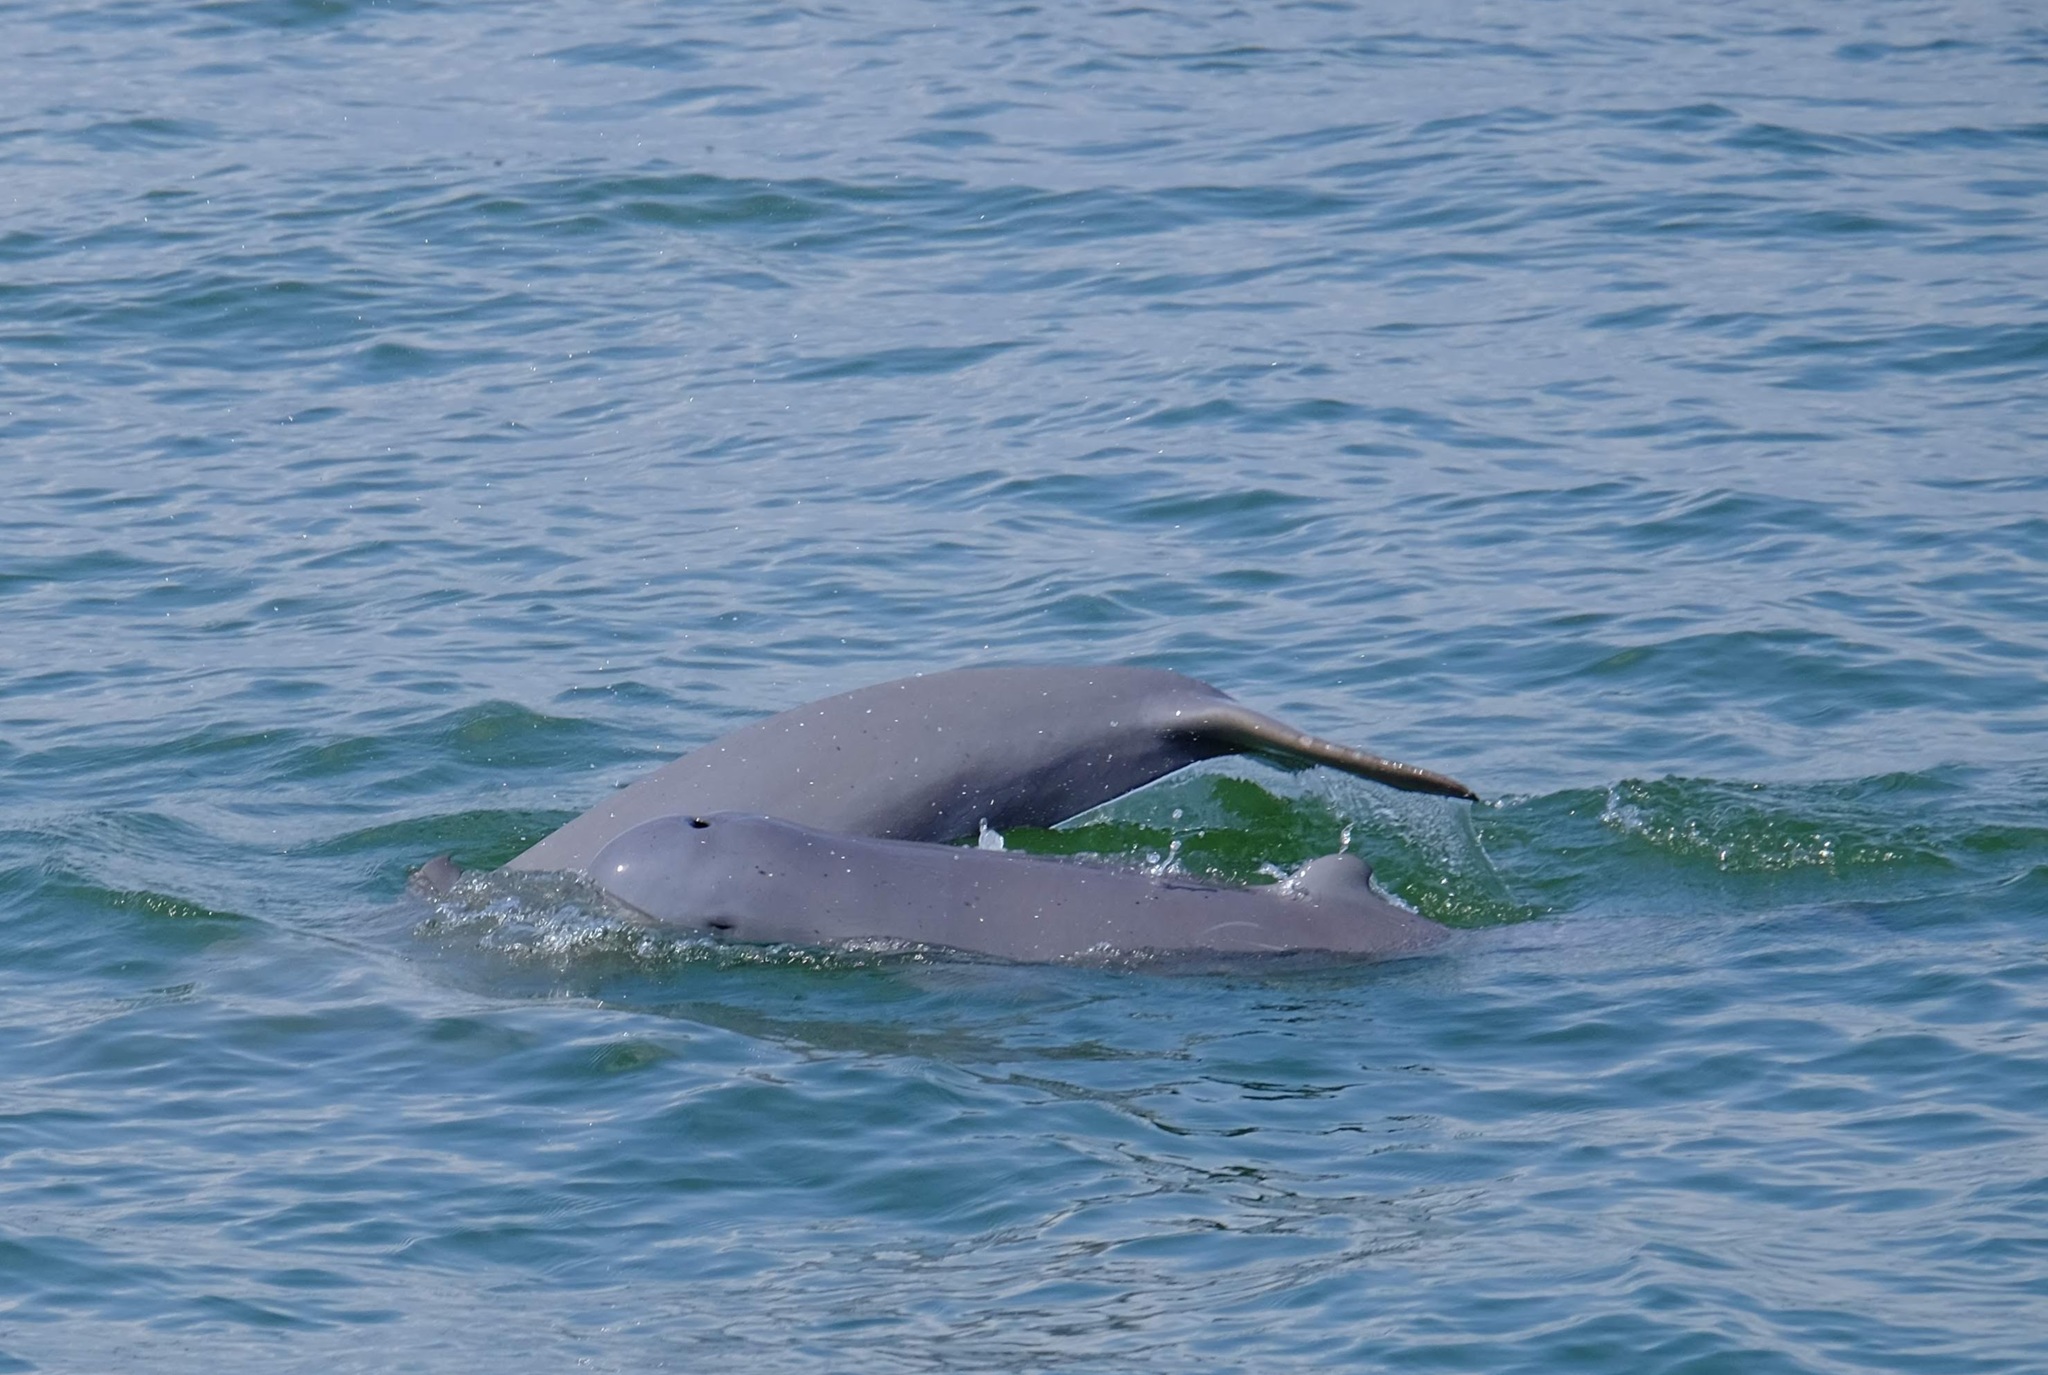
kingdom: Animalia
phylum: Chordata
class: Mammalia
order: Cetacea
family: Delphinidae
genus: Orcaella
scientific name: Orcaella brevirostris
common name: Irrawaddy dolphin
